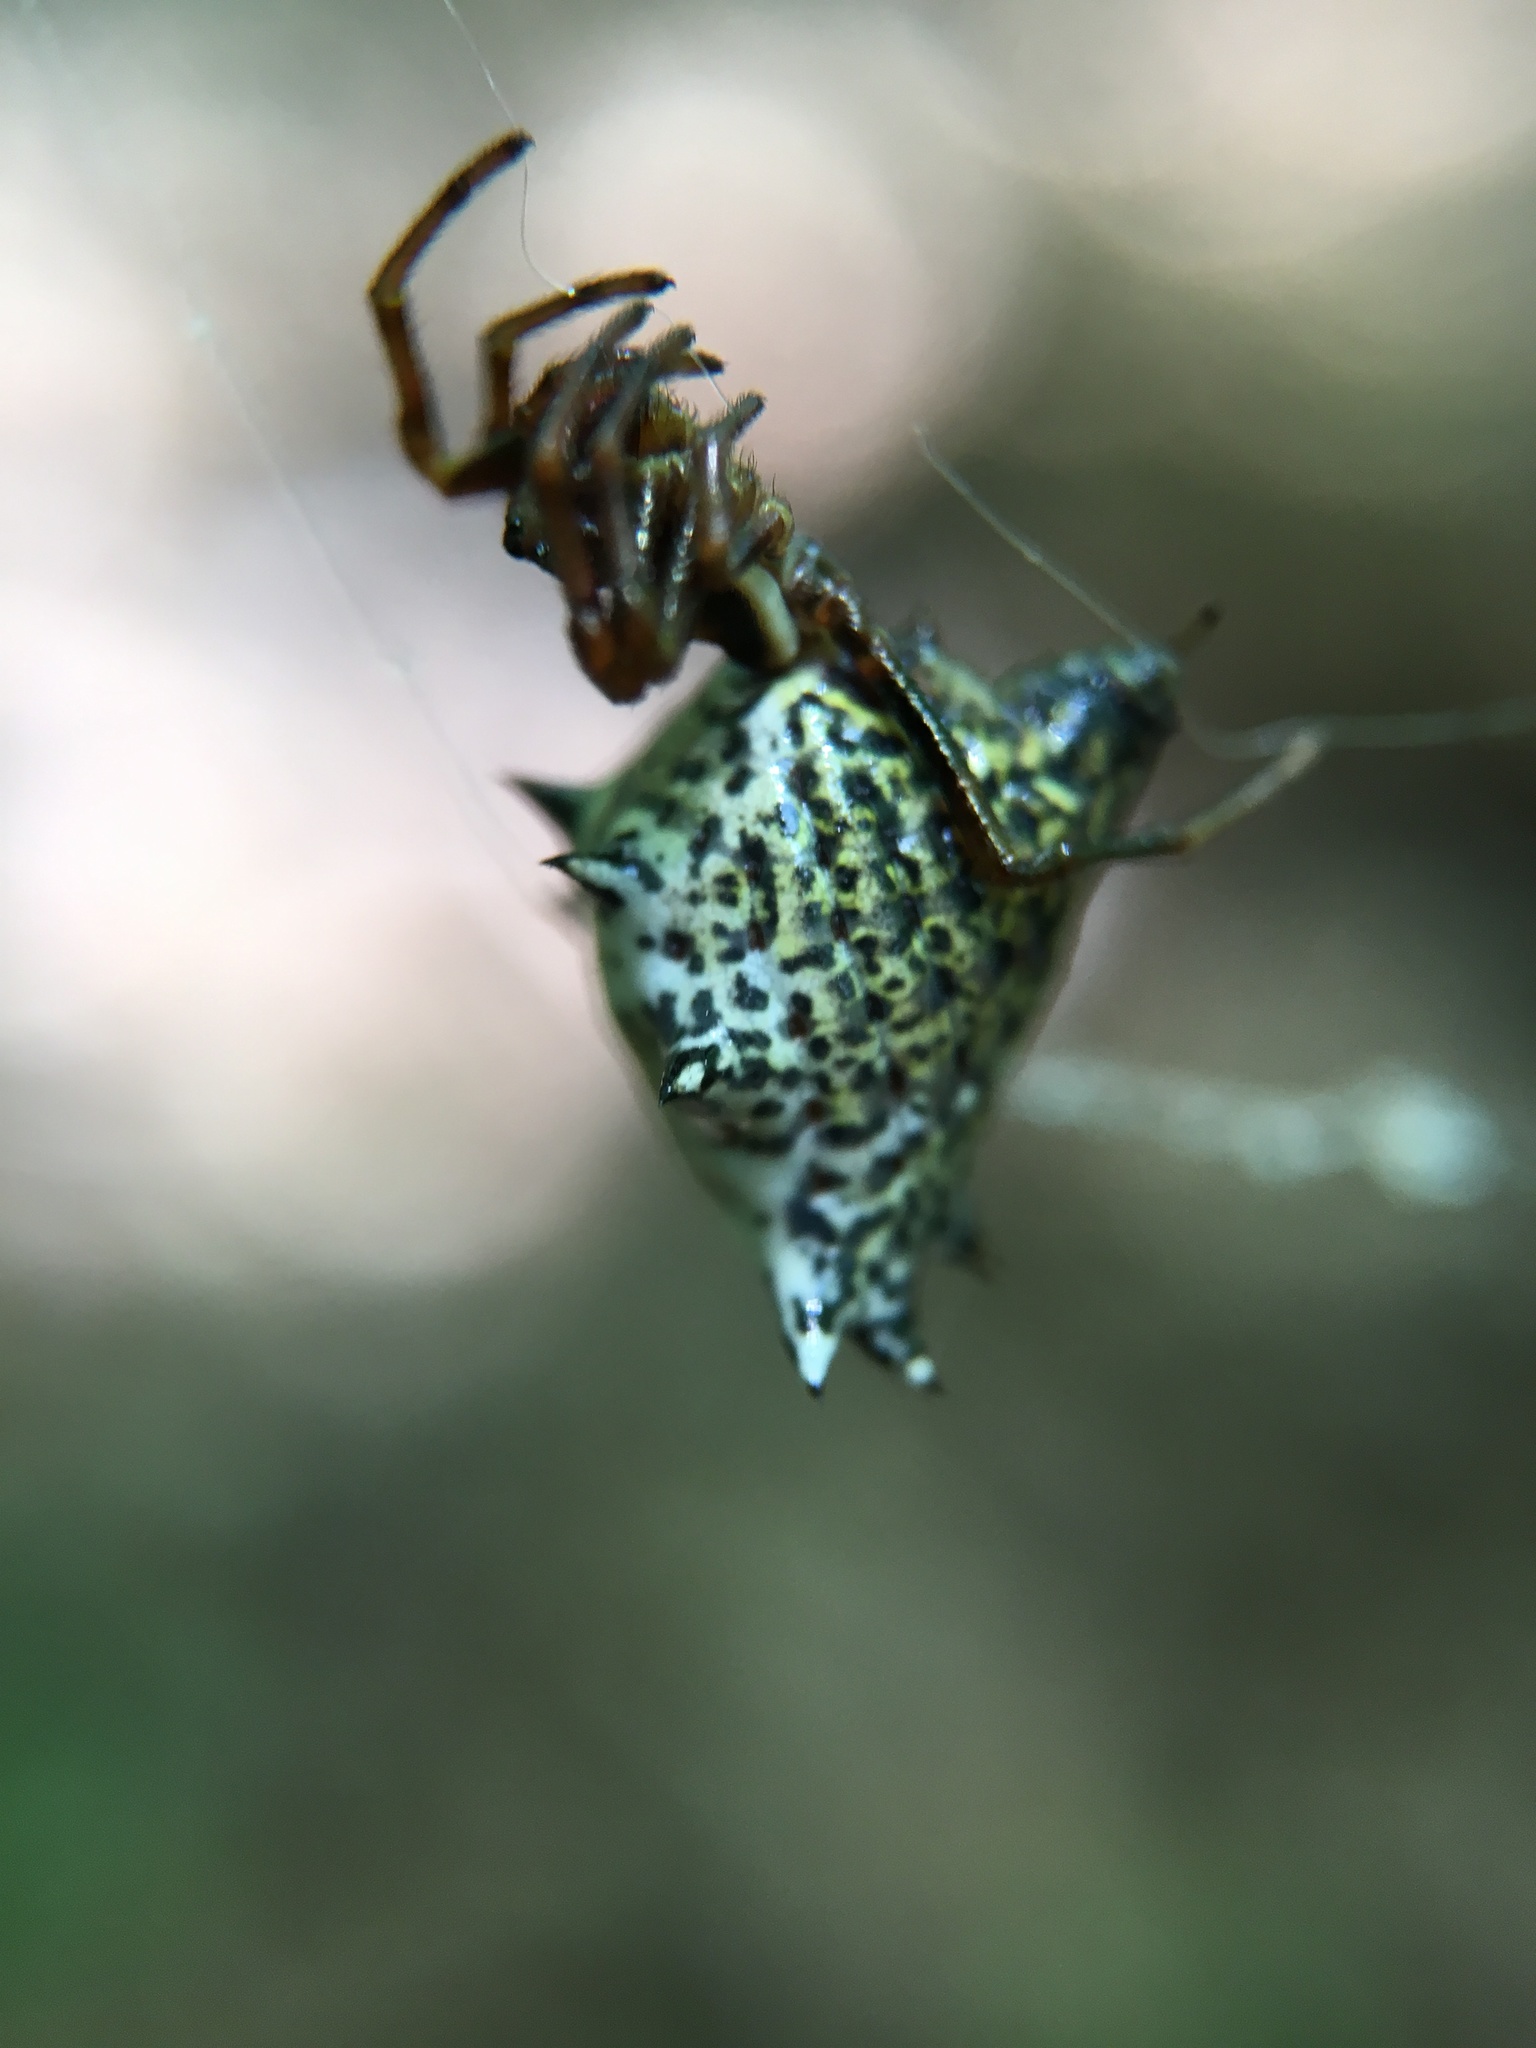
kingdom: Animalia
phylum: Arthropoda
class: Arachnida
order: Araneae
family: Araneidae
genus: Micrathena
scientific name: Micrathena gracilis
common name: Orb weavers
